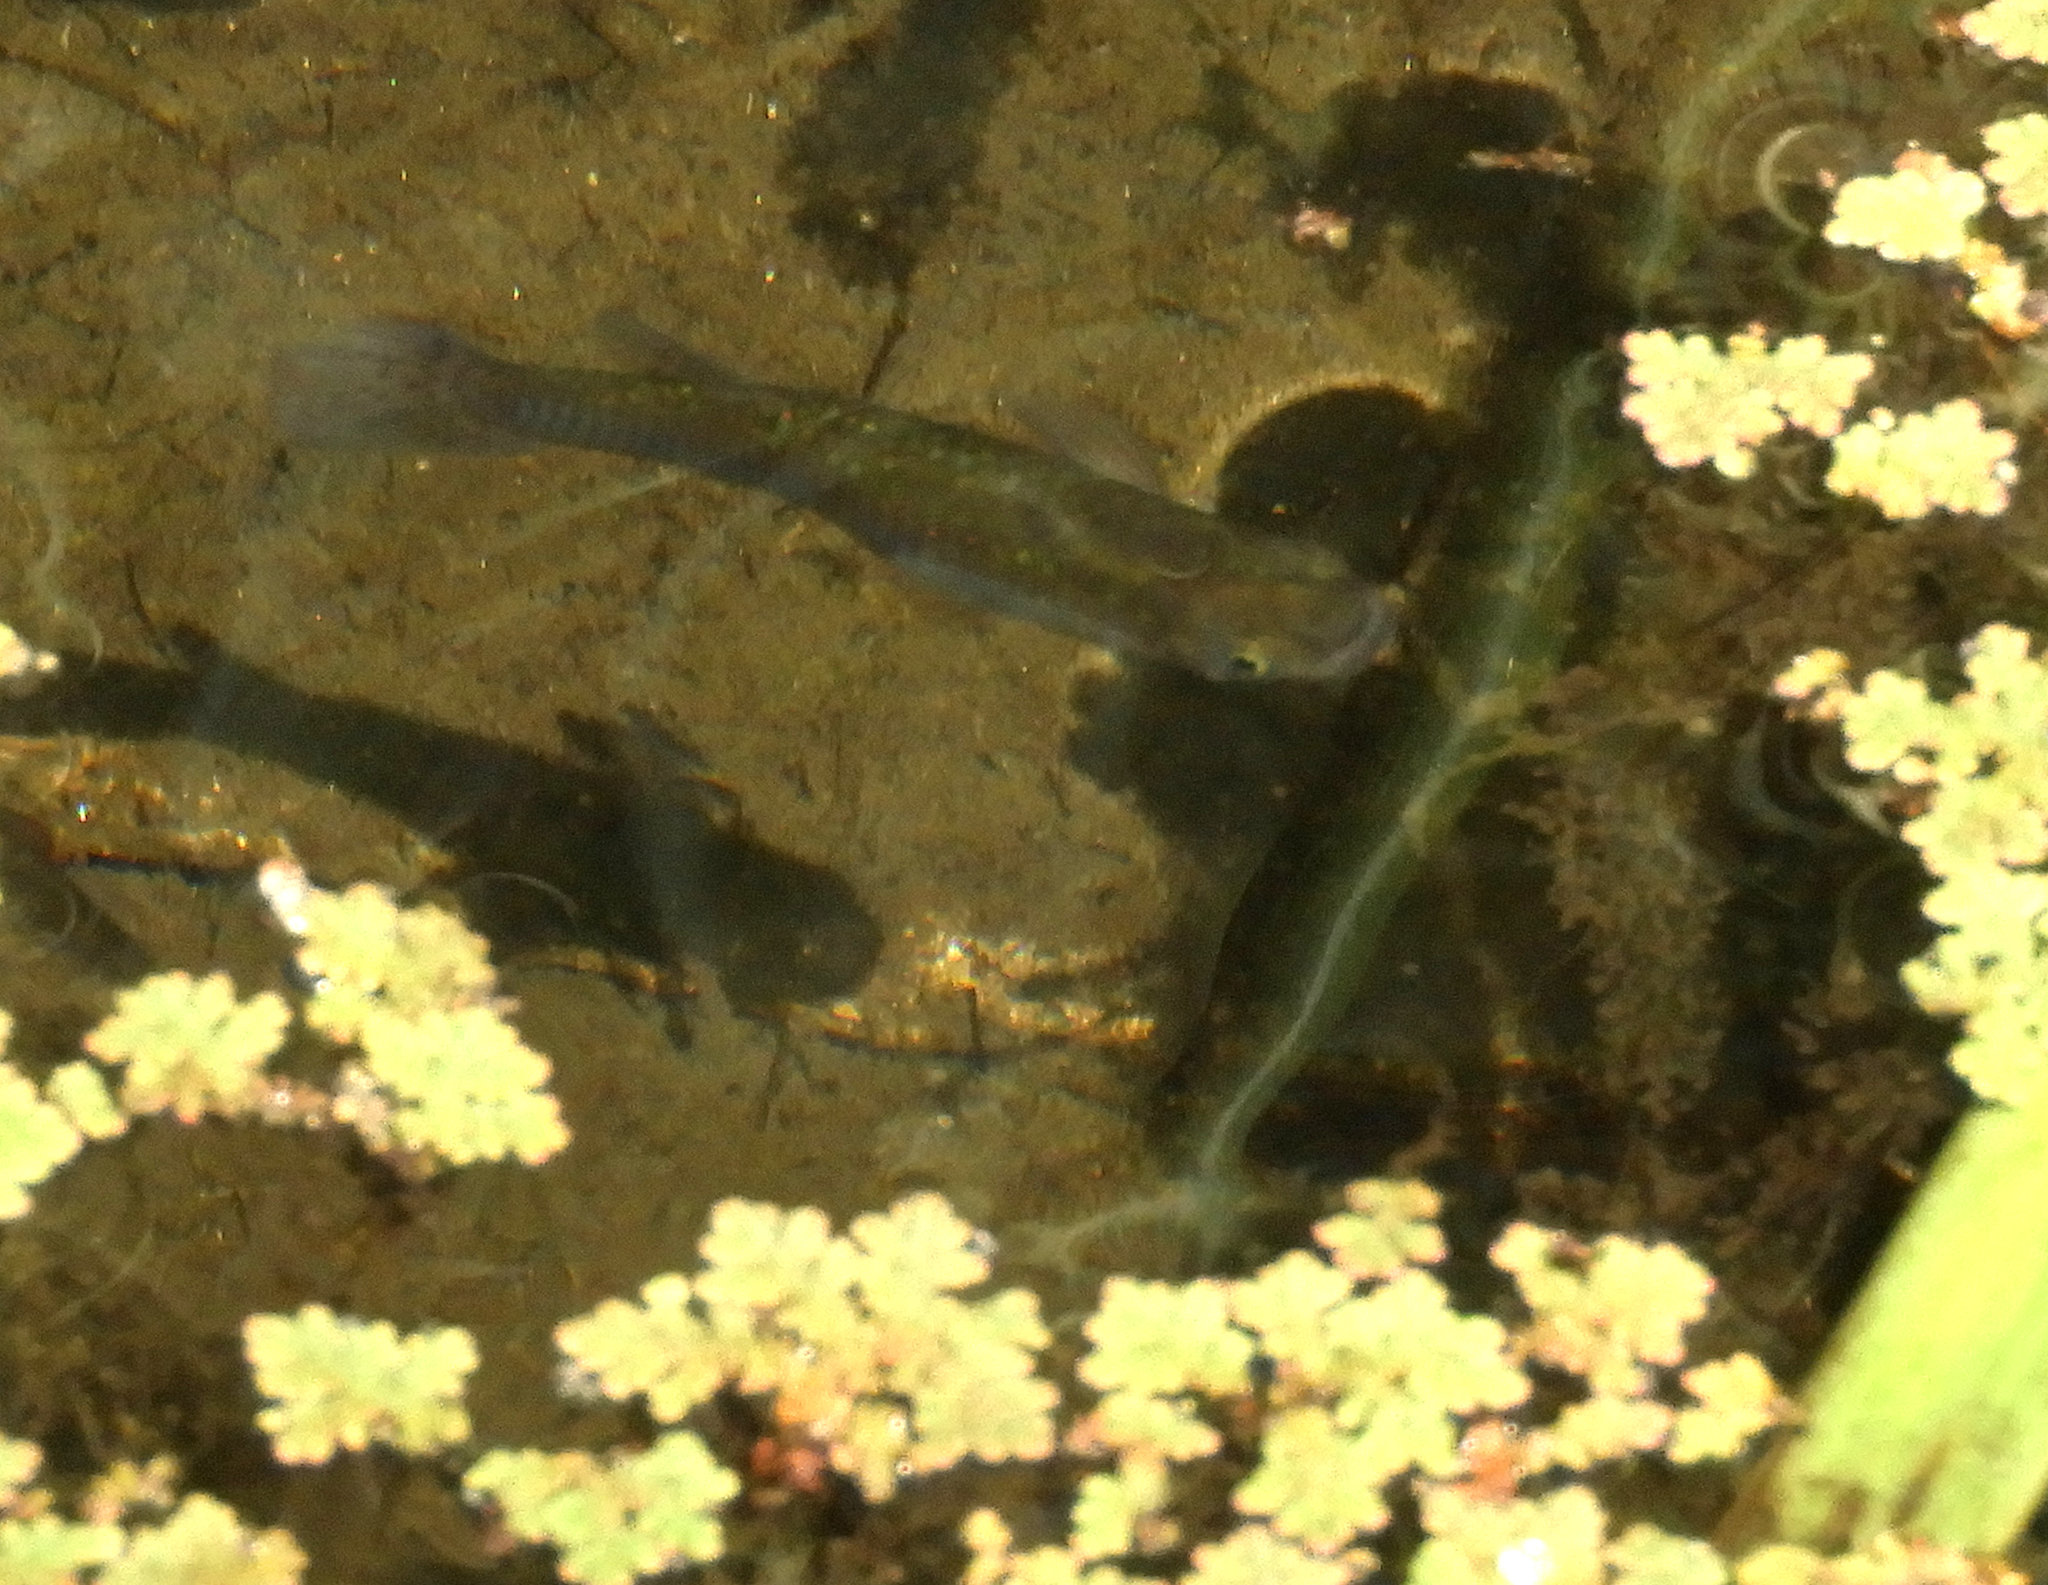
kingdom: Animalia
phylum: Chordata
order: Cyprinodontiformes
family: Poeciliidae
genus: Gambusia
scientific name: Gambusia affinis
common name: Mosquitofish
